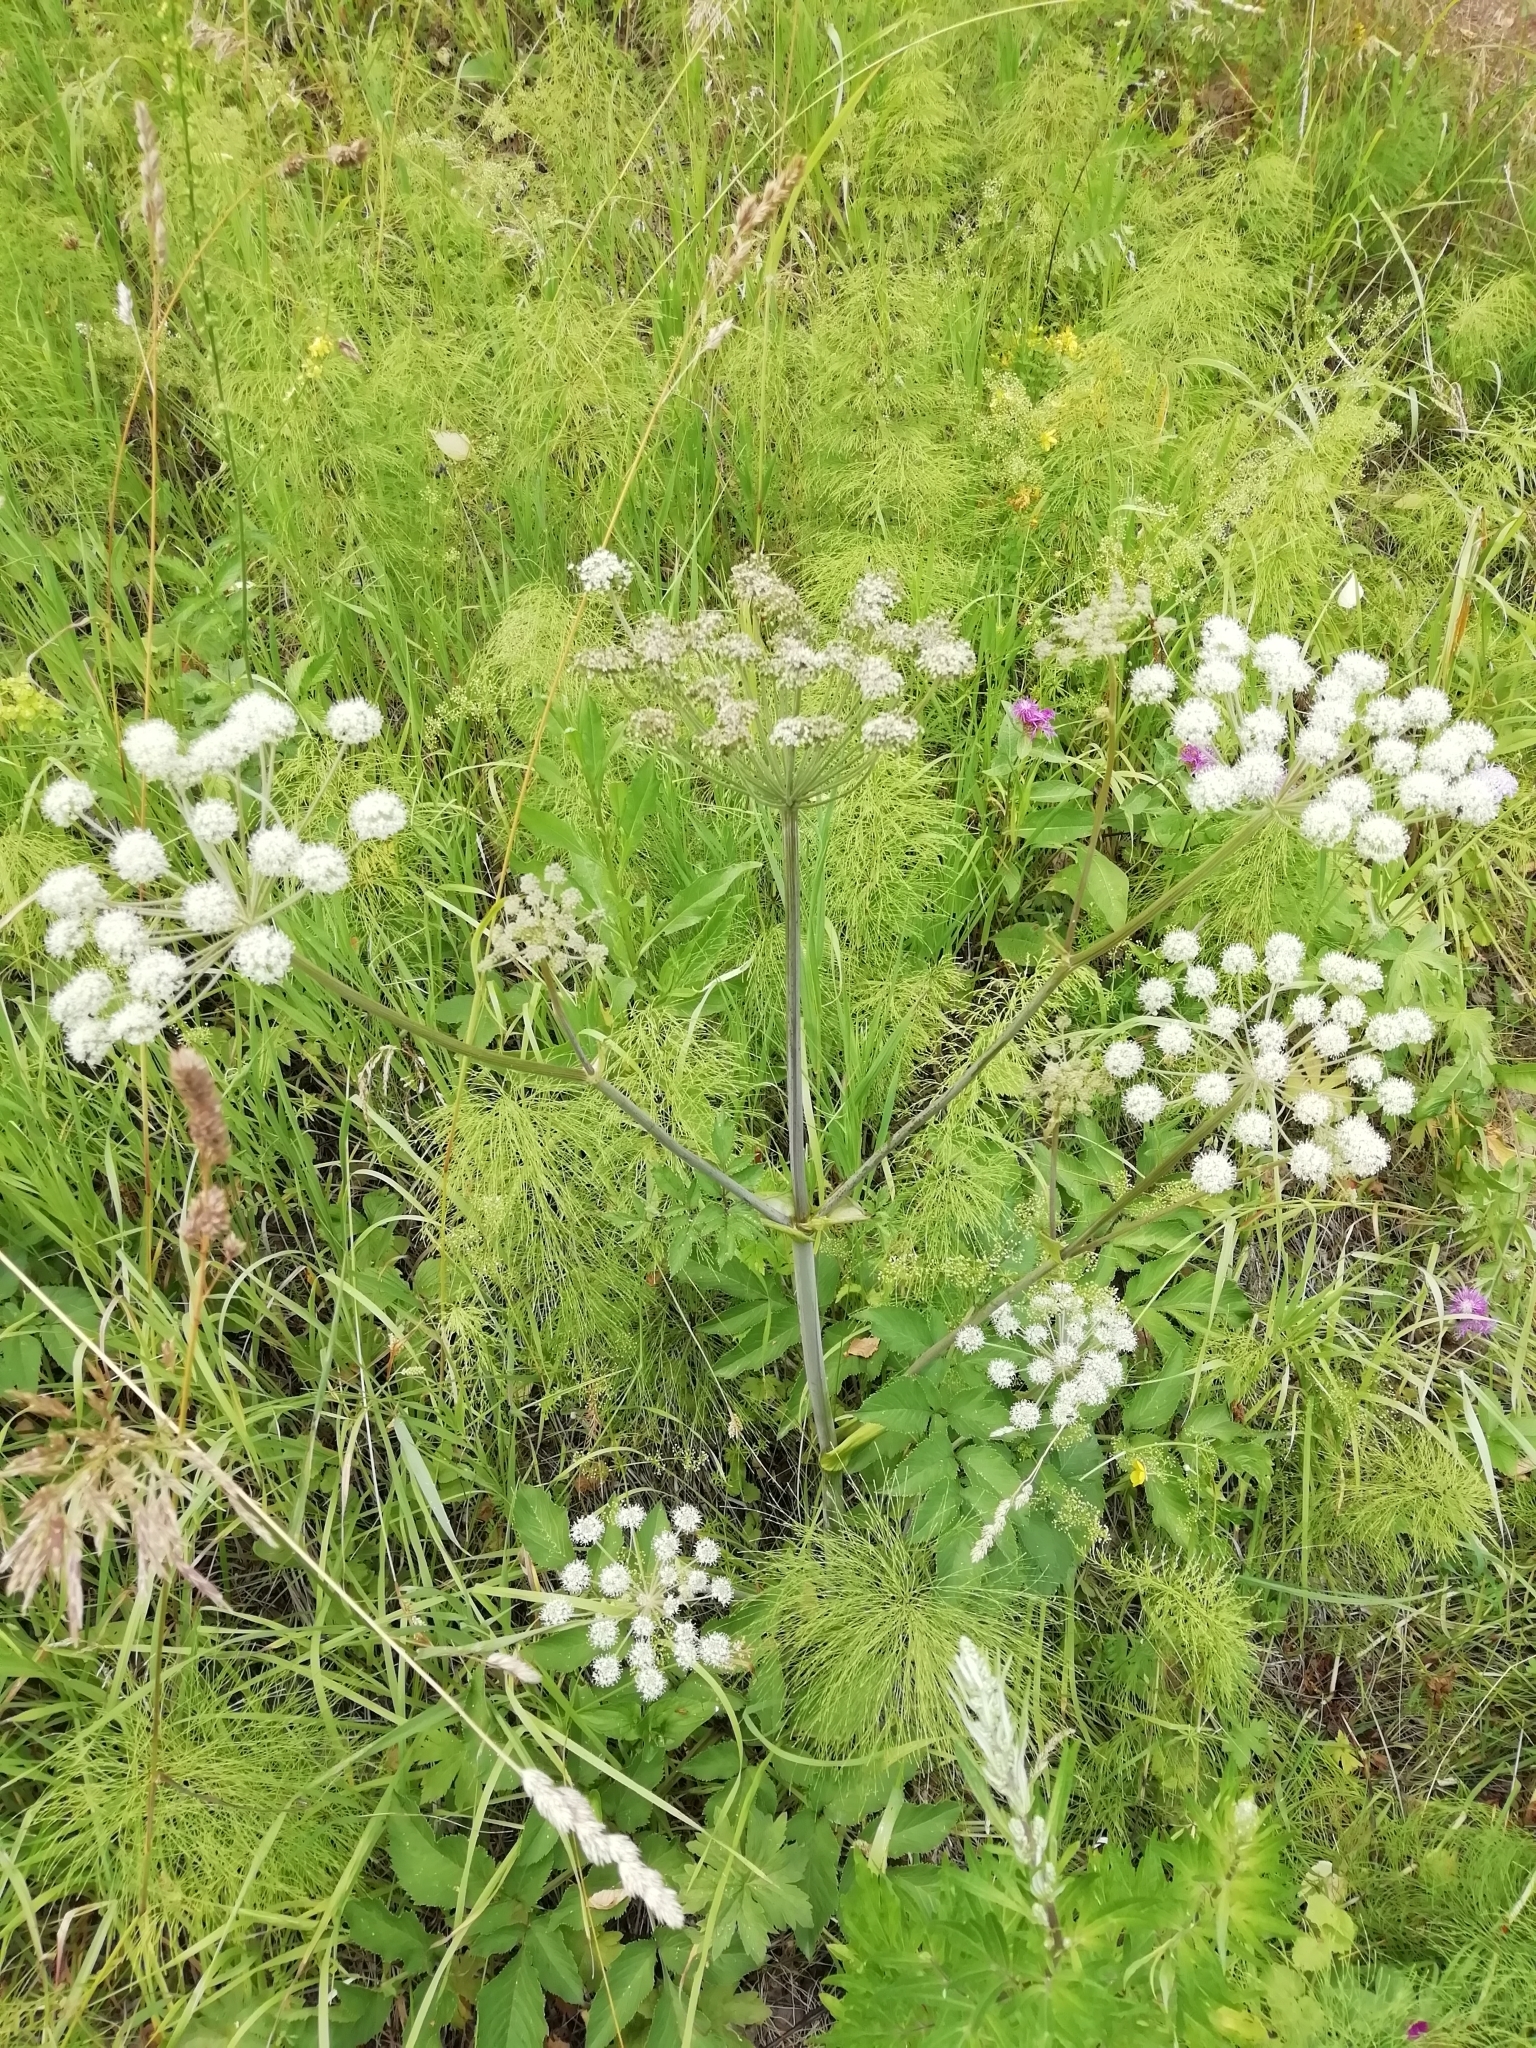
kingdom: Plantae
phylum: Tracheophyta
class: Magnoliopsida
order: Apiales
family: Apiaceae
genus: Angelica
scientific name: Angelica sylvestris
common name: Wild angelica
